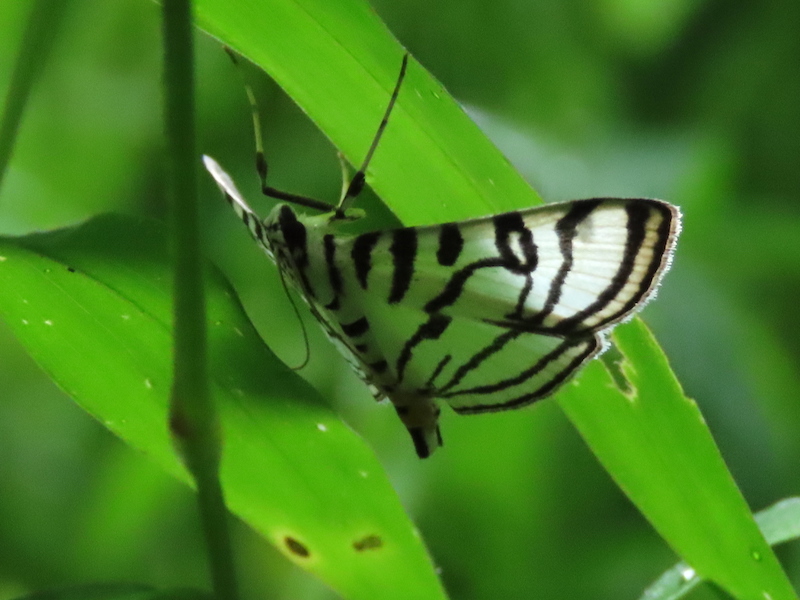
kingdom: Animalia
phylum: Arthropoda
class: Insecta
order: Lepidoptera
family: Crambidae
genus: Conchylodes
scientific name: Conchylodes ovulalis
